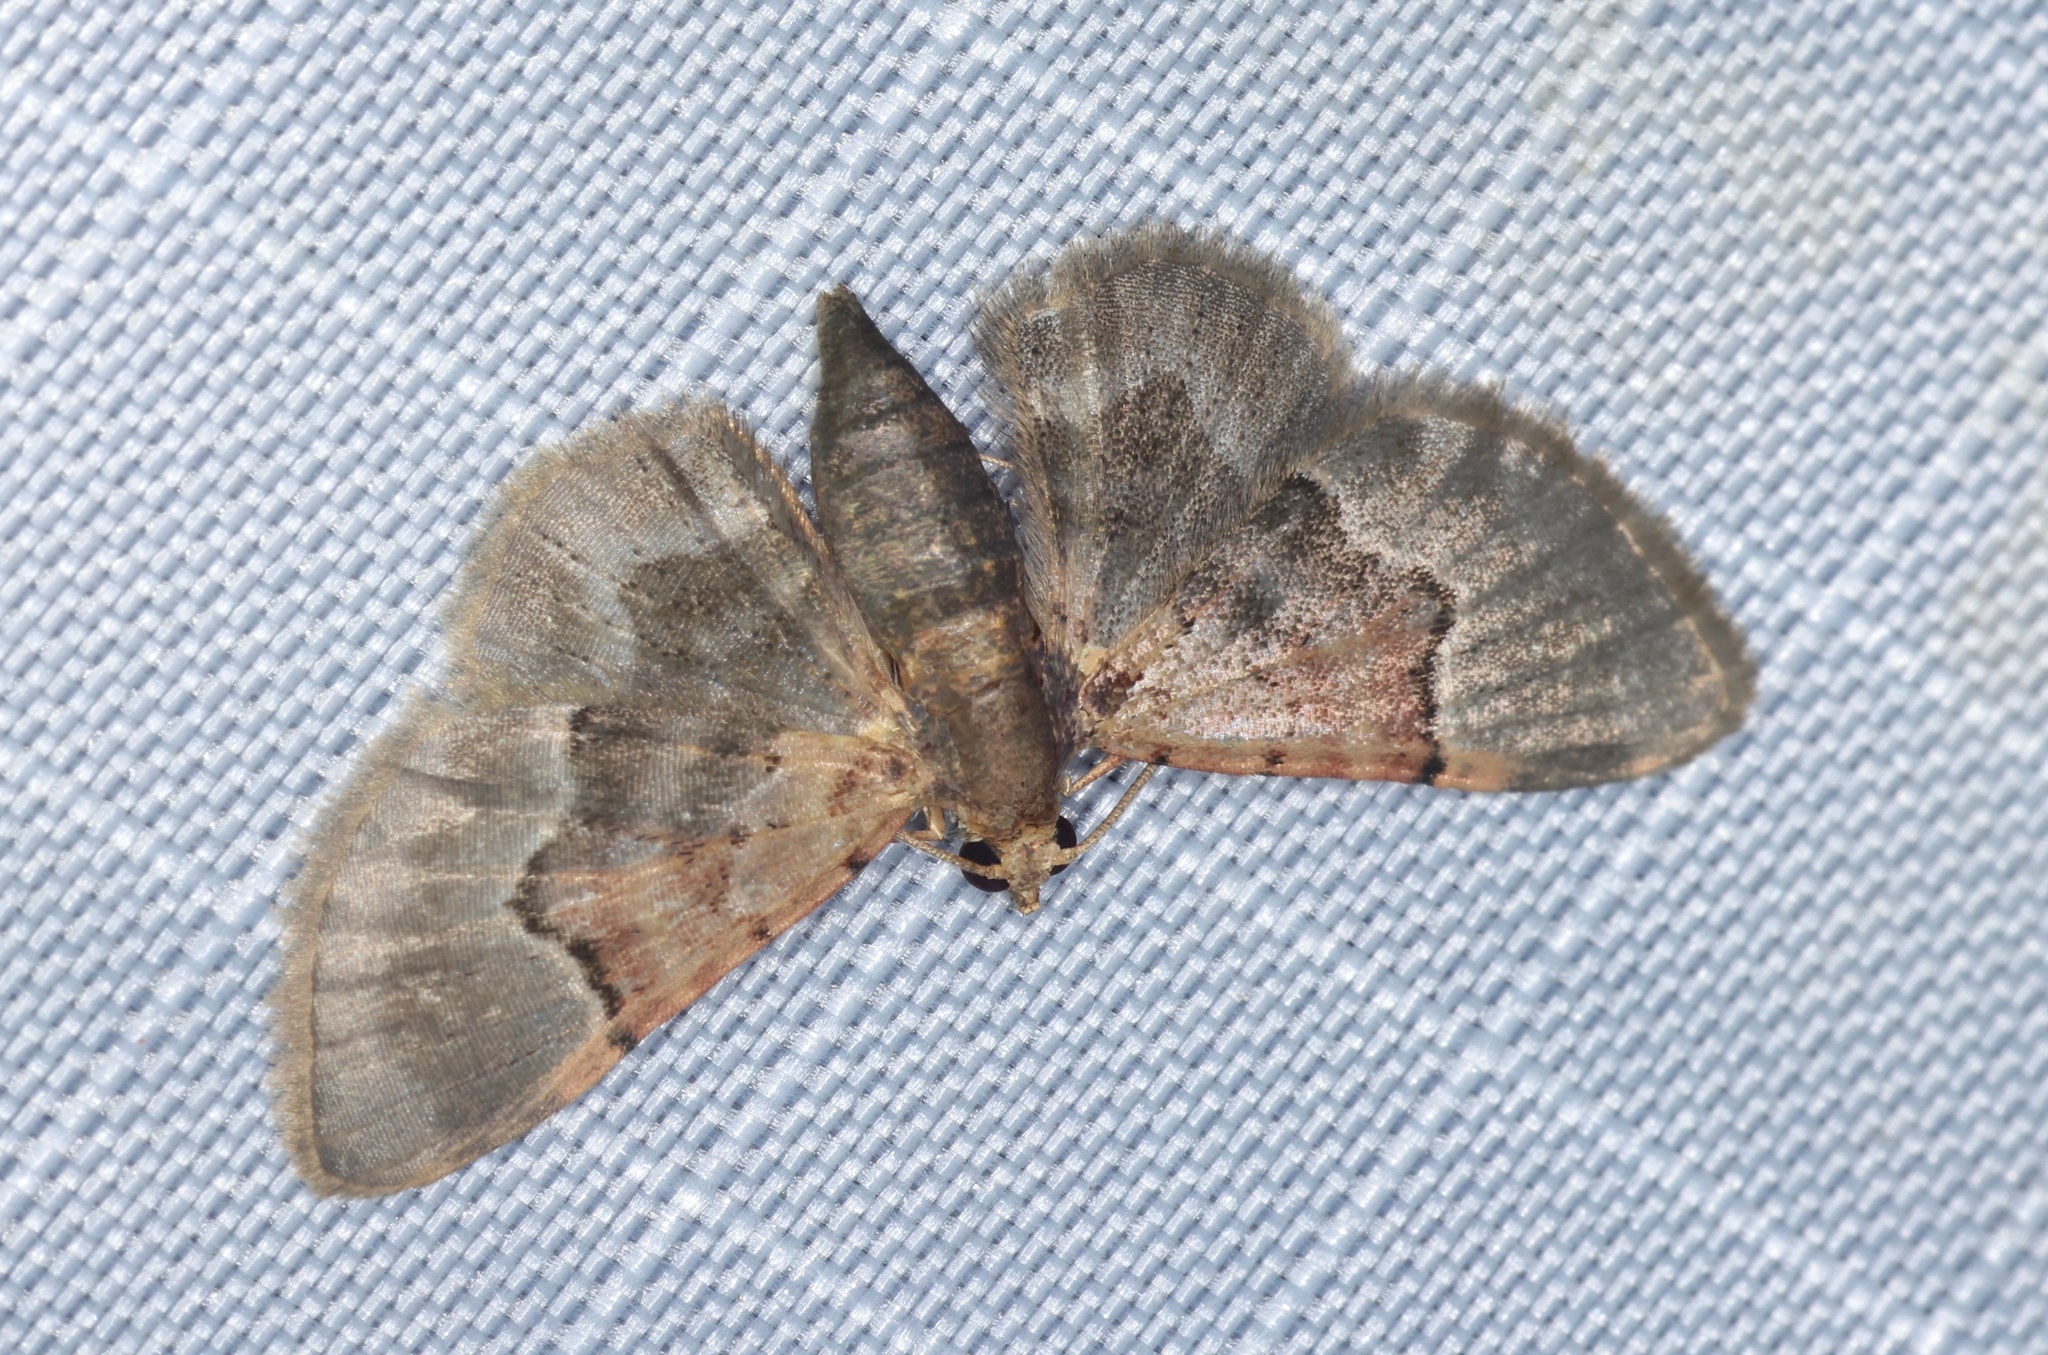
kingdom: Animalia
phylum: Arthropoda
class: Insecta
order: Lepidoptera
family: Geometridae
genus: Glaucoclystis
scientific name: Glaucoclystis griseorufa
